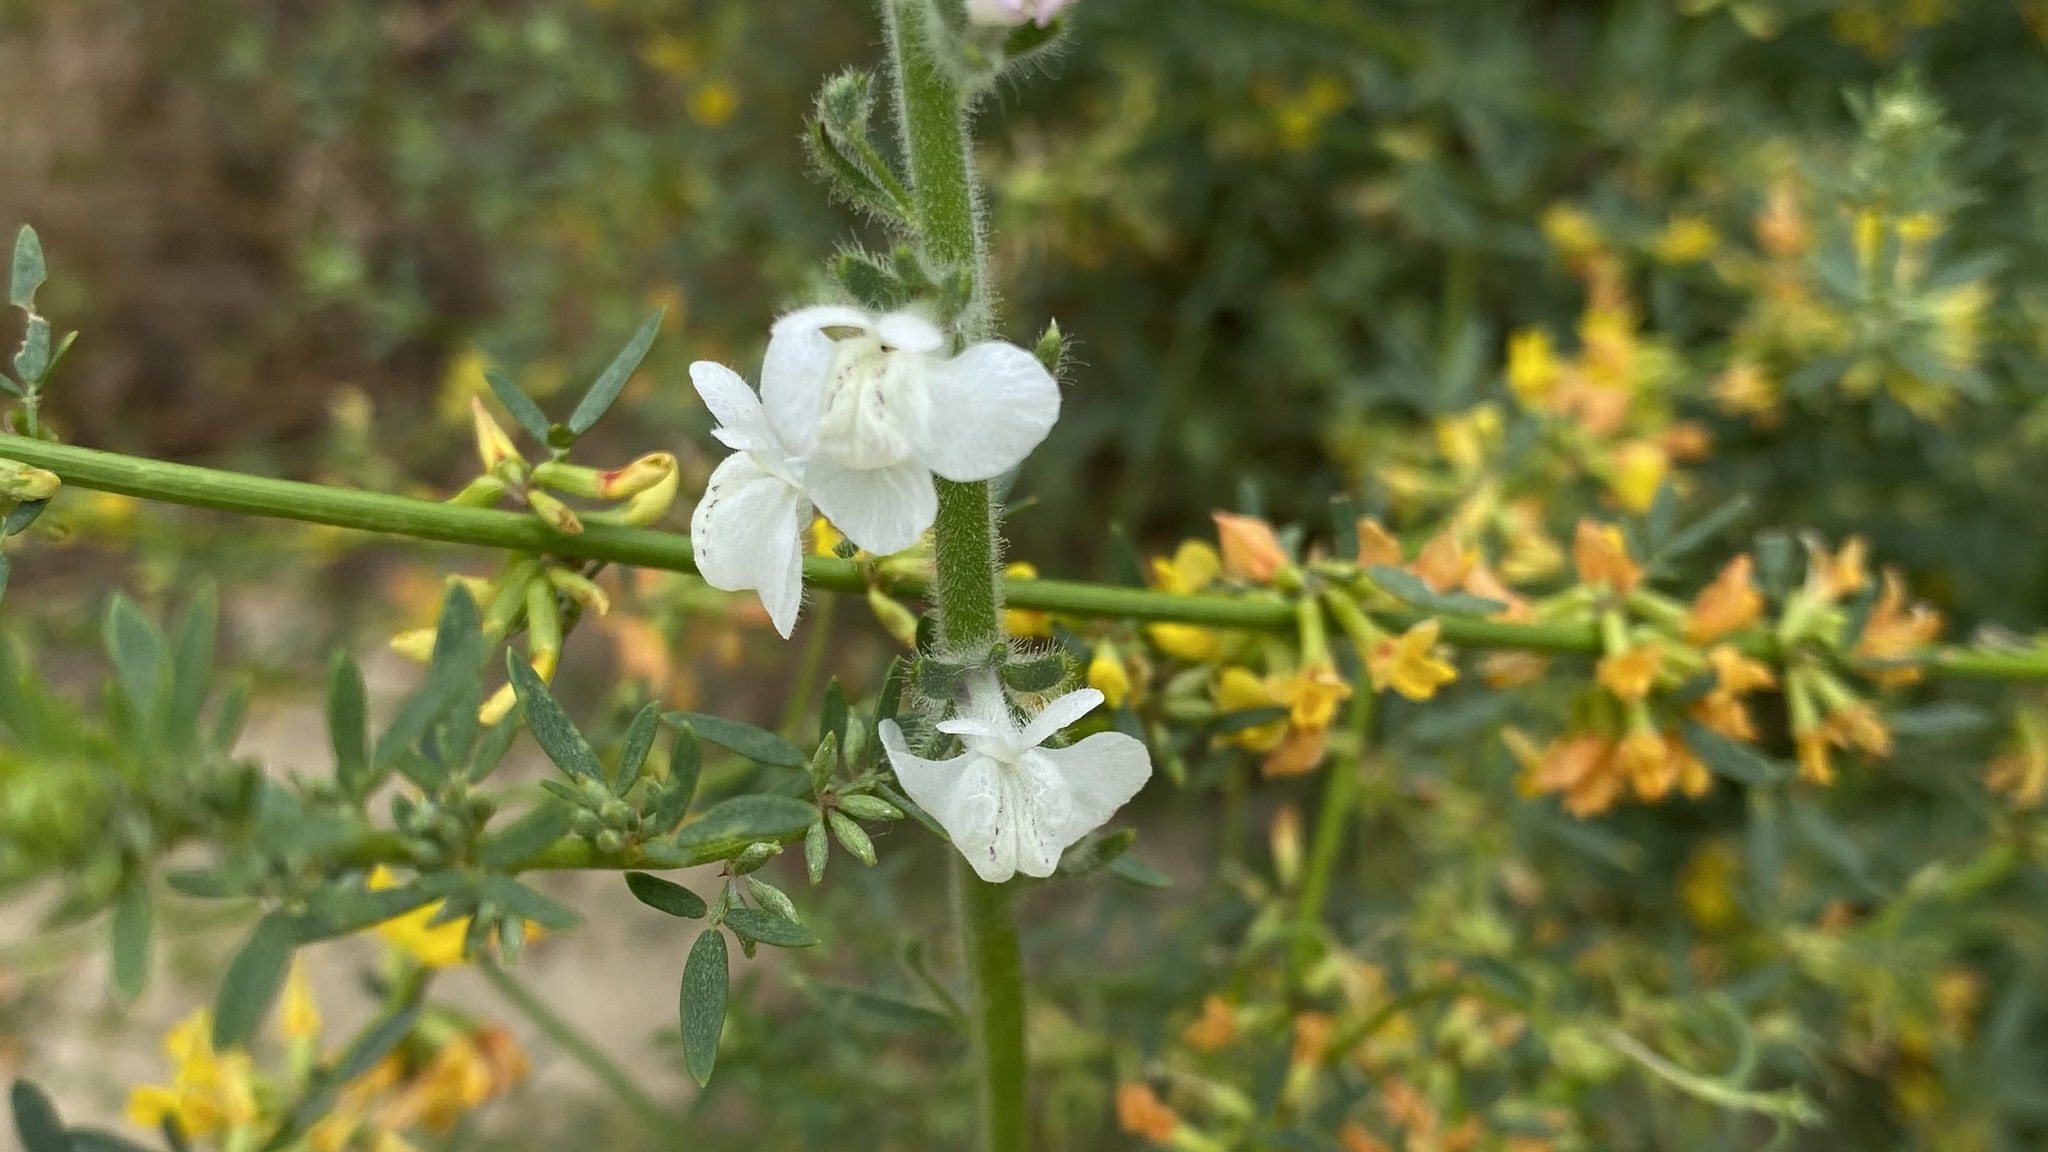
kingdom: Plantae
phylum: Tracheophyta
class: Magnoliopsida
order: Lamiales
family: Plantaginaceae
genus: Sairocarpus
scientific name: Sairocarpus coulterianus
